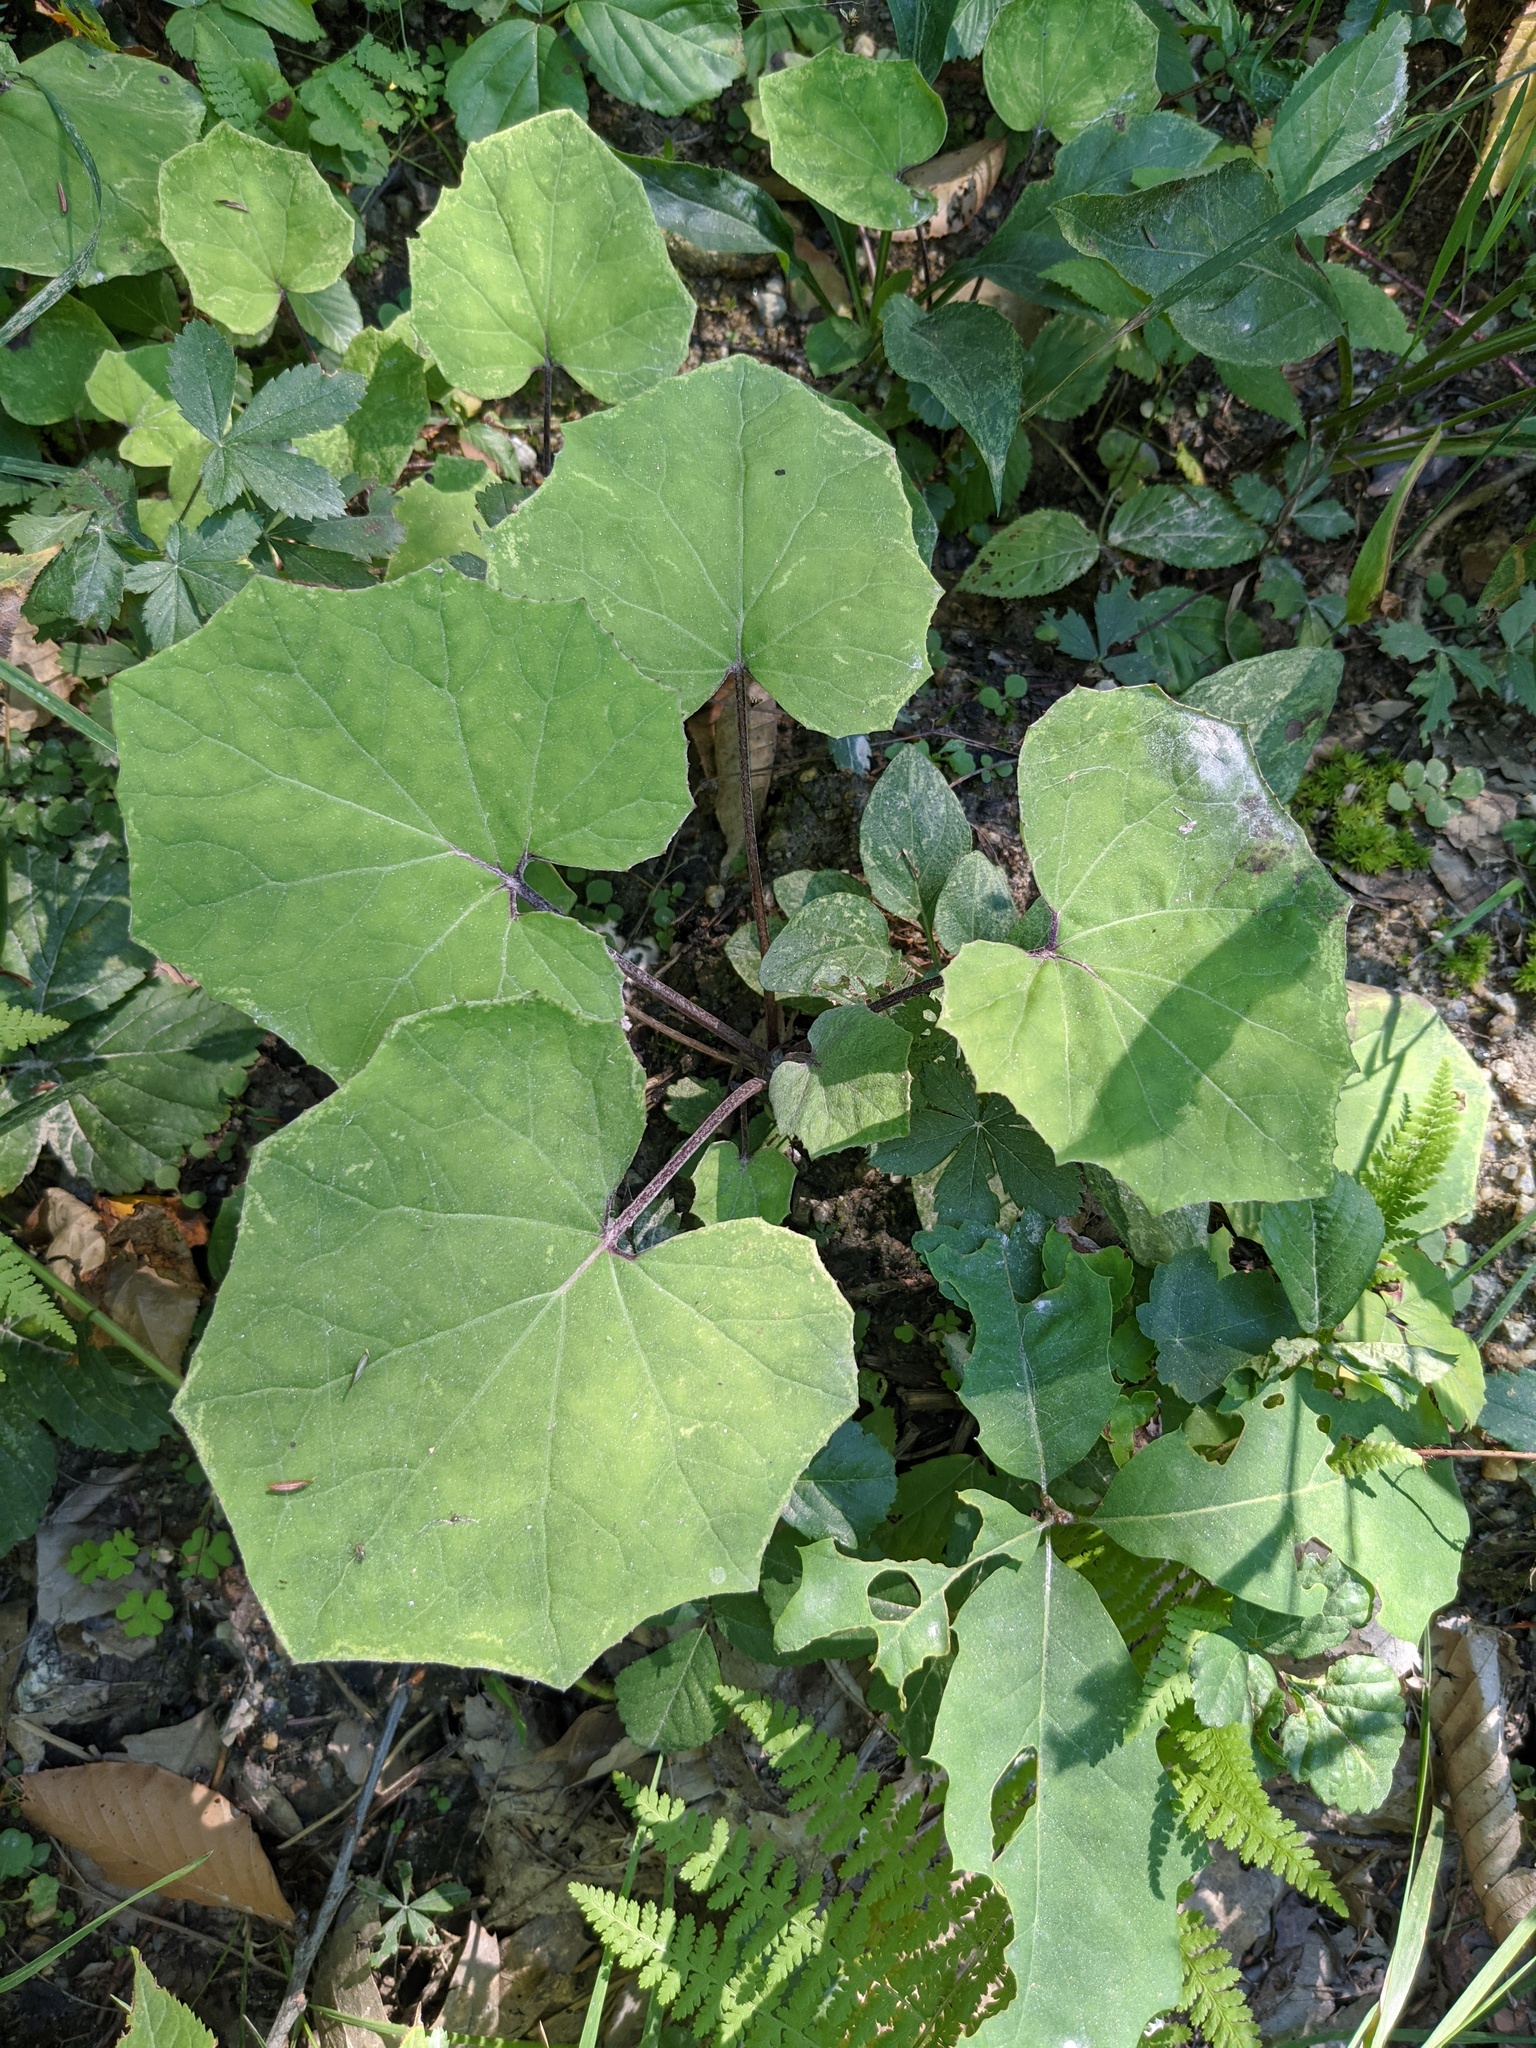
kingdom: Plantae
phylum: Tracheophyta
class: Magnoliopsida
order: Asterales
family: Asteraceae
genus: Tussilago
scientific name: Tussilago farfara
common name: Coltsfoot
